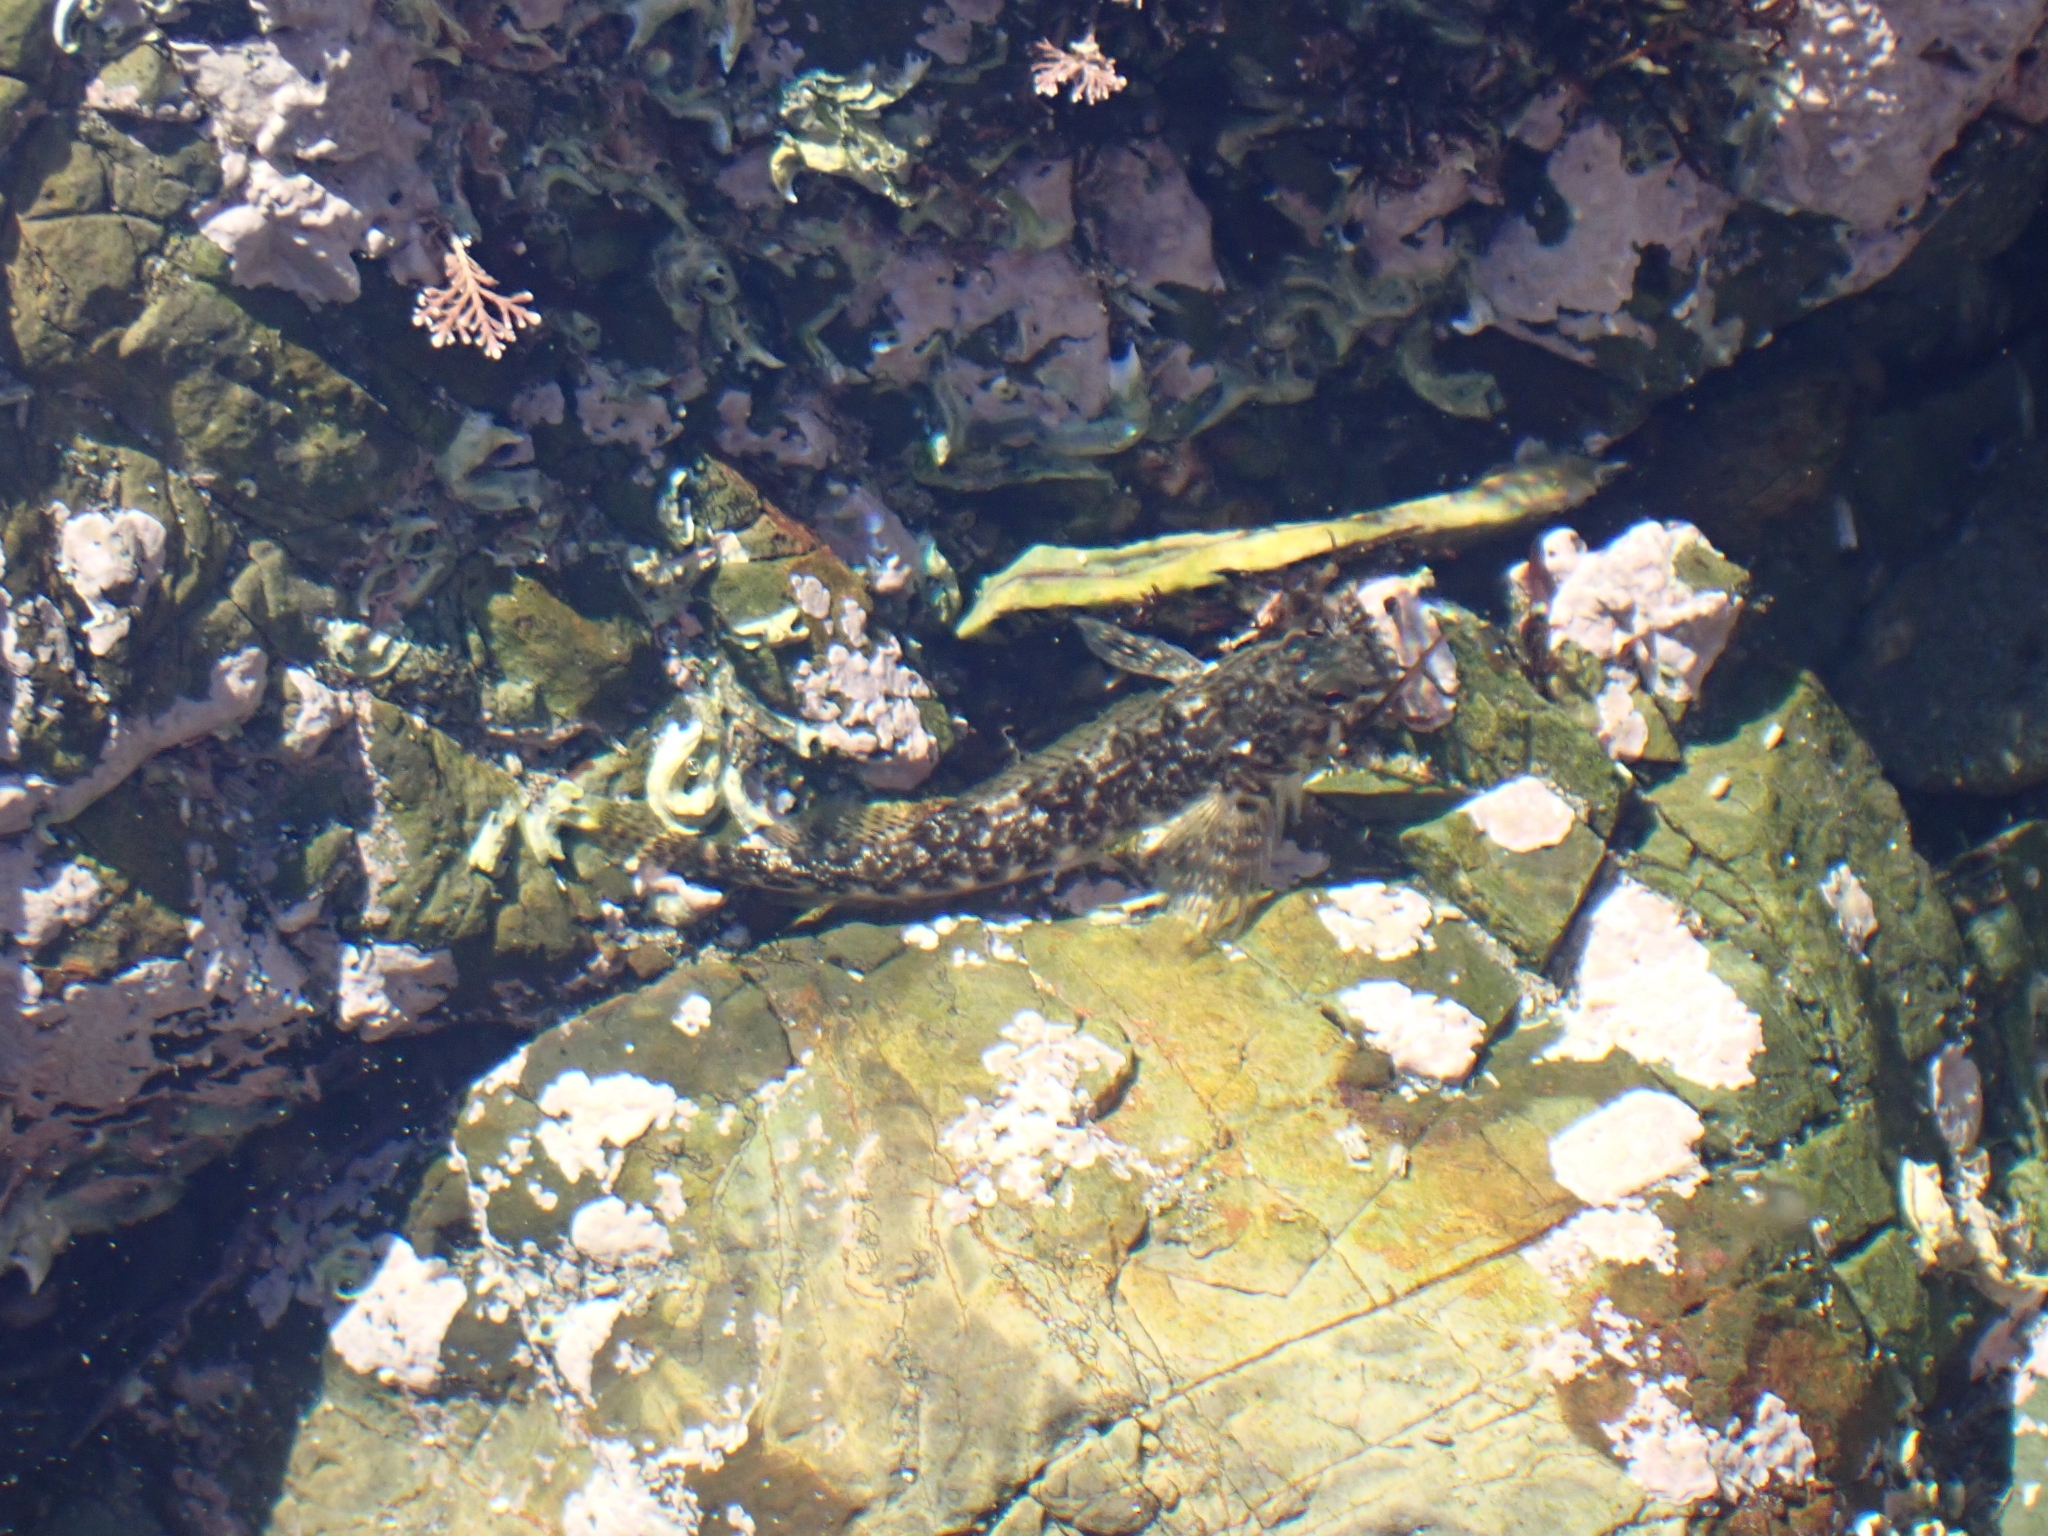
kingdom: Animalia
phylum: Chordata
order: Perciformes
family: Tripterygiidae
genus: Bellapiscis
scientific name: Bellapiscis medius
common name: Twister
